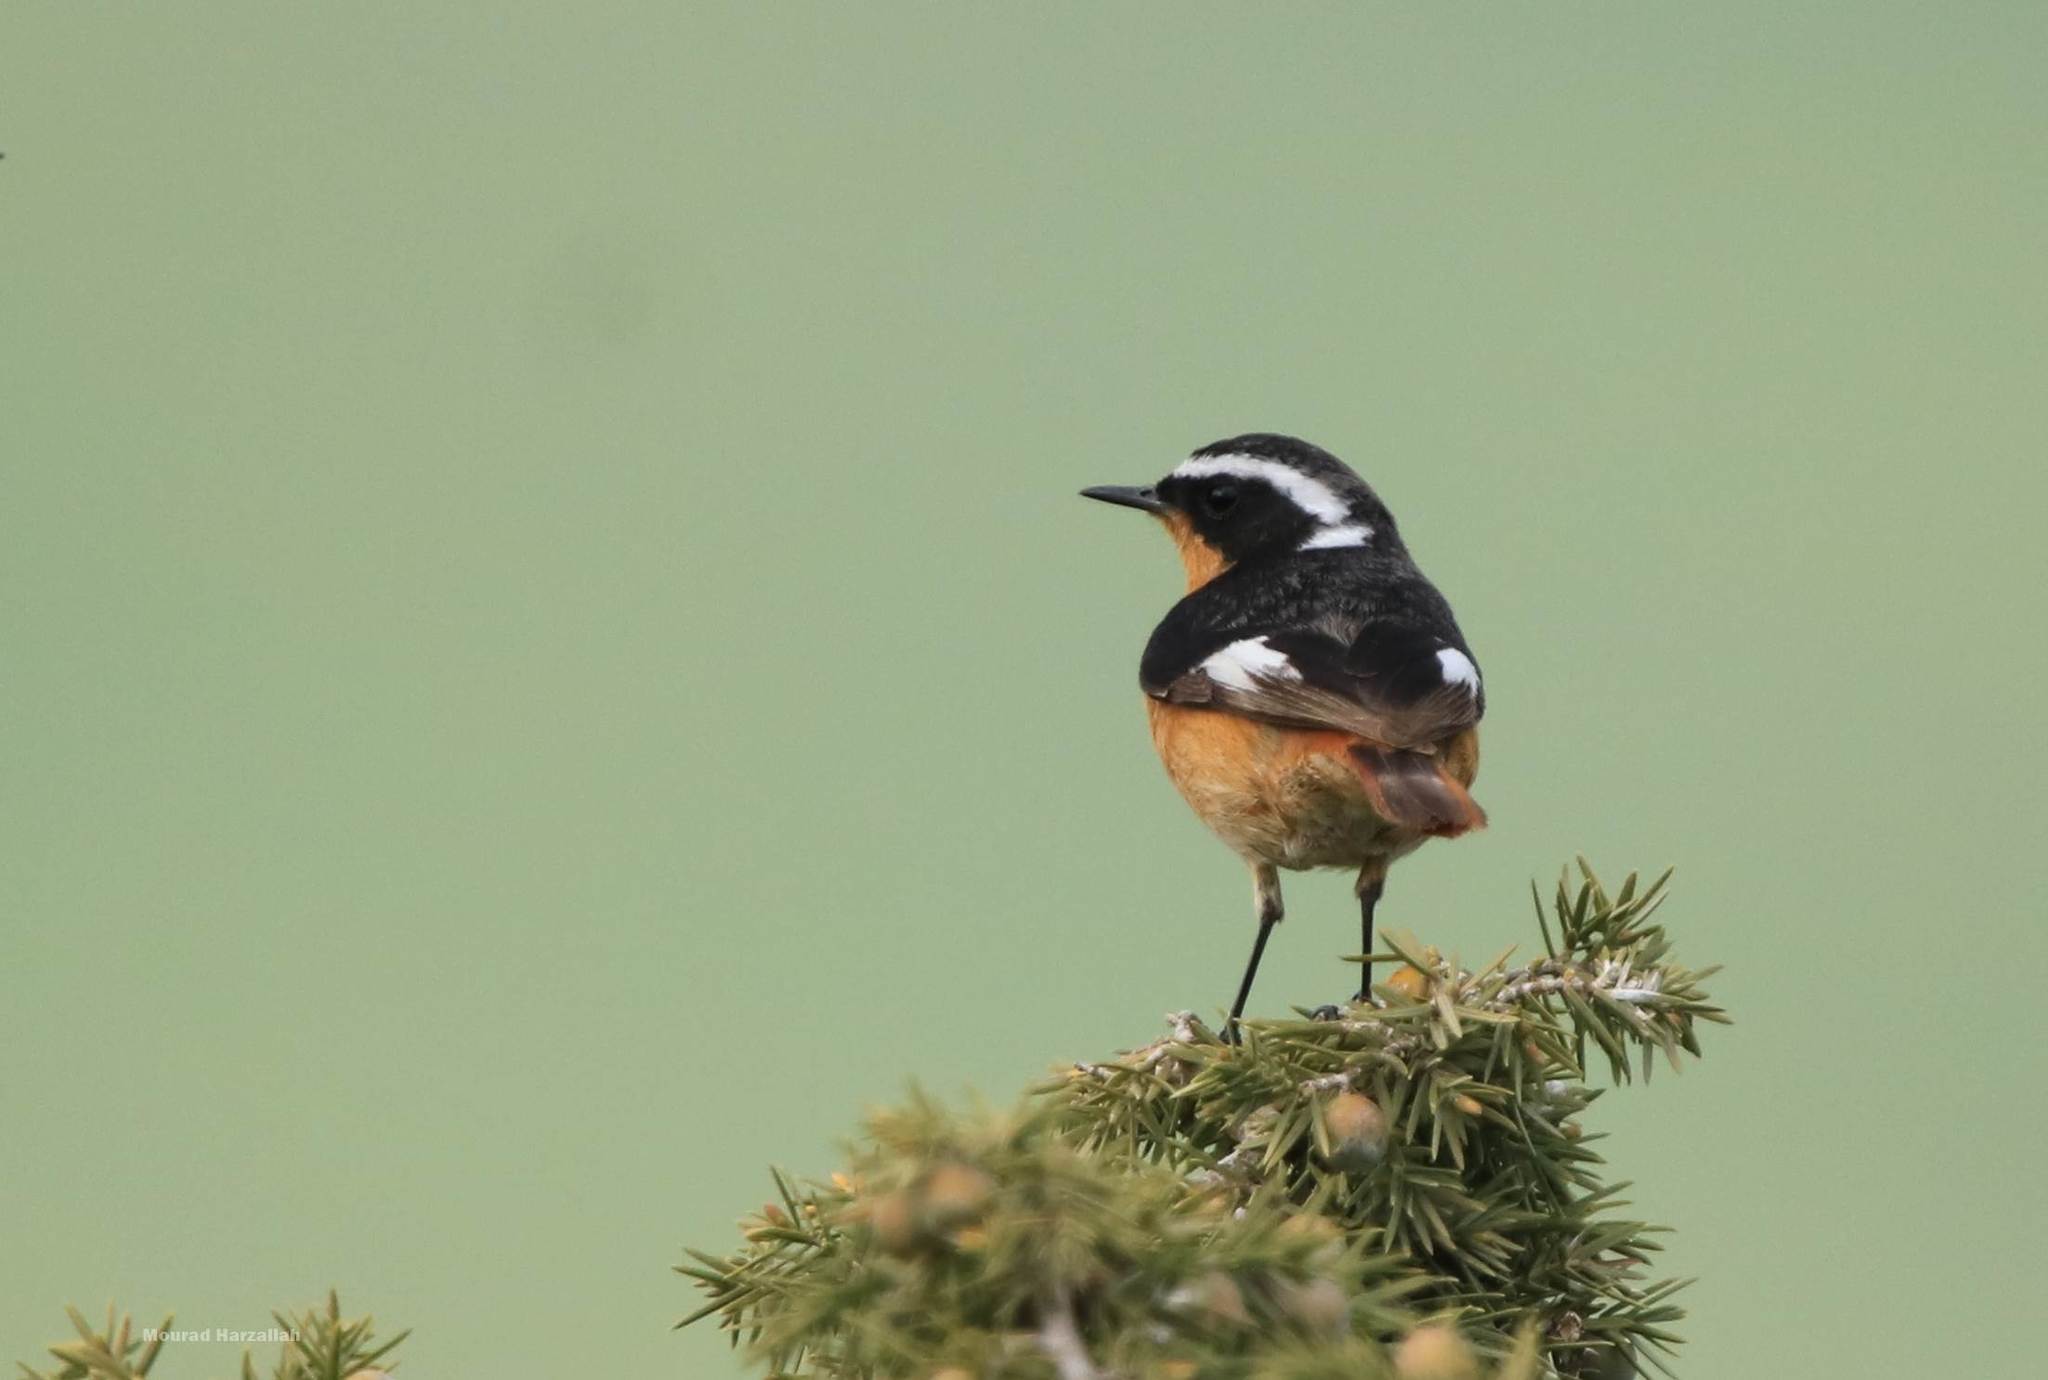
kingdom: Animalia
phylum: Chordata
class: Aves
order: Passeriformes
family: Muscicapidae
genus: Phoenicurus
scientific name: Phoenicurus moussieri
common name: Moussier's redstart
